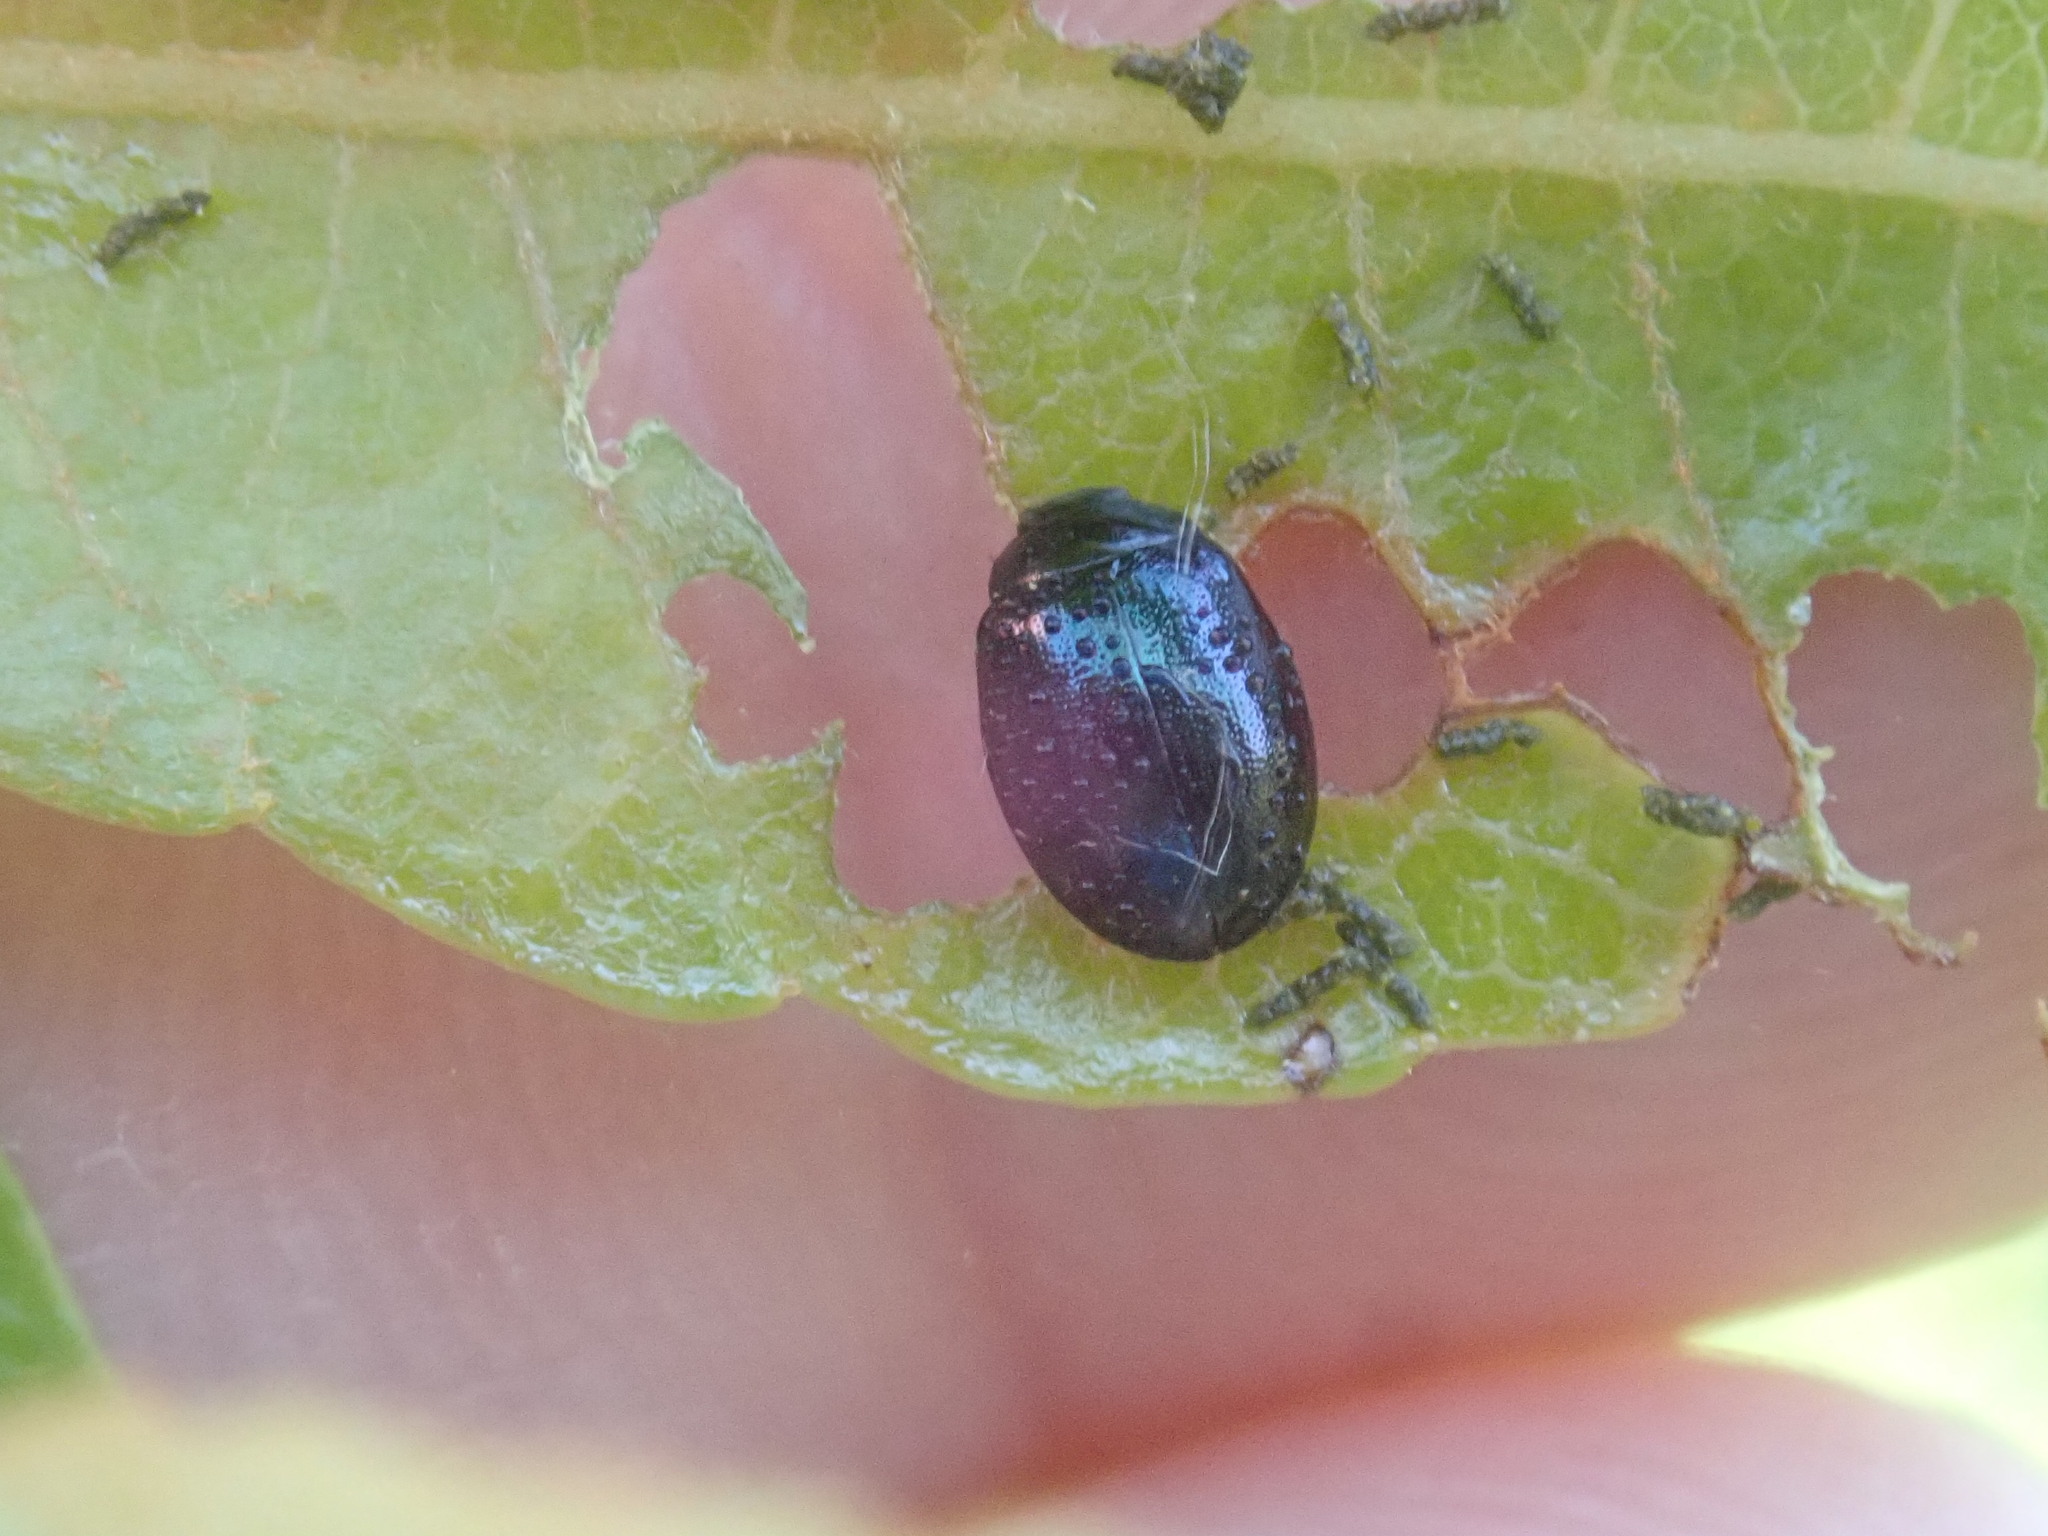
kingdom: Animalia
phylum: Arthropoda
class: Insecta
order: Coleoptera
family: Chrysomelidae
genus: Plagiodera
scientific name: Plagiodera versicolora
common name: Imported willow leaf beetle
